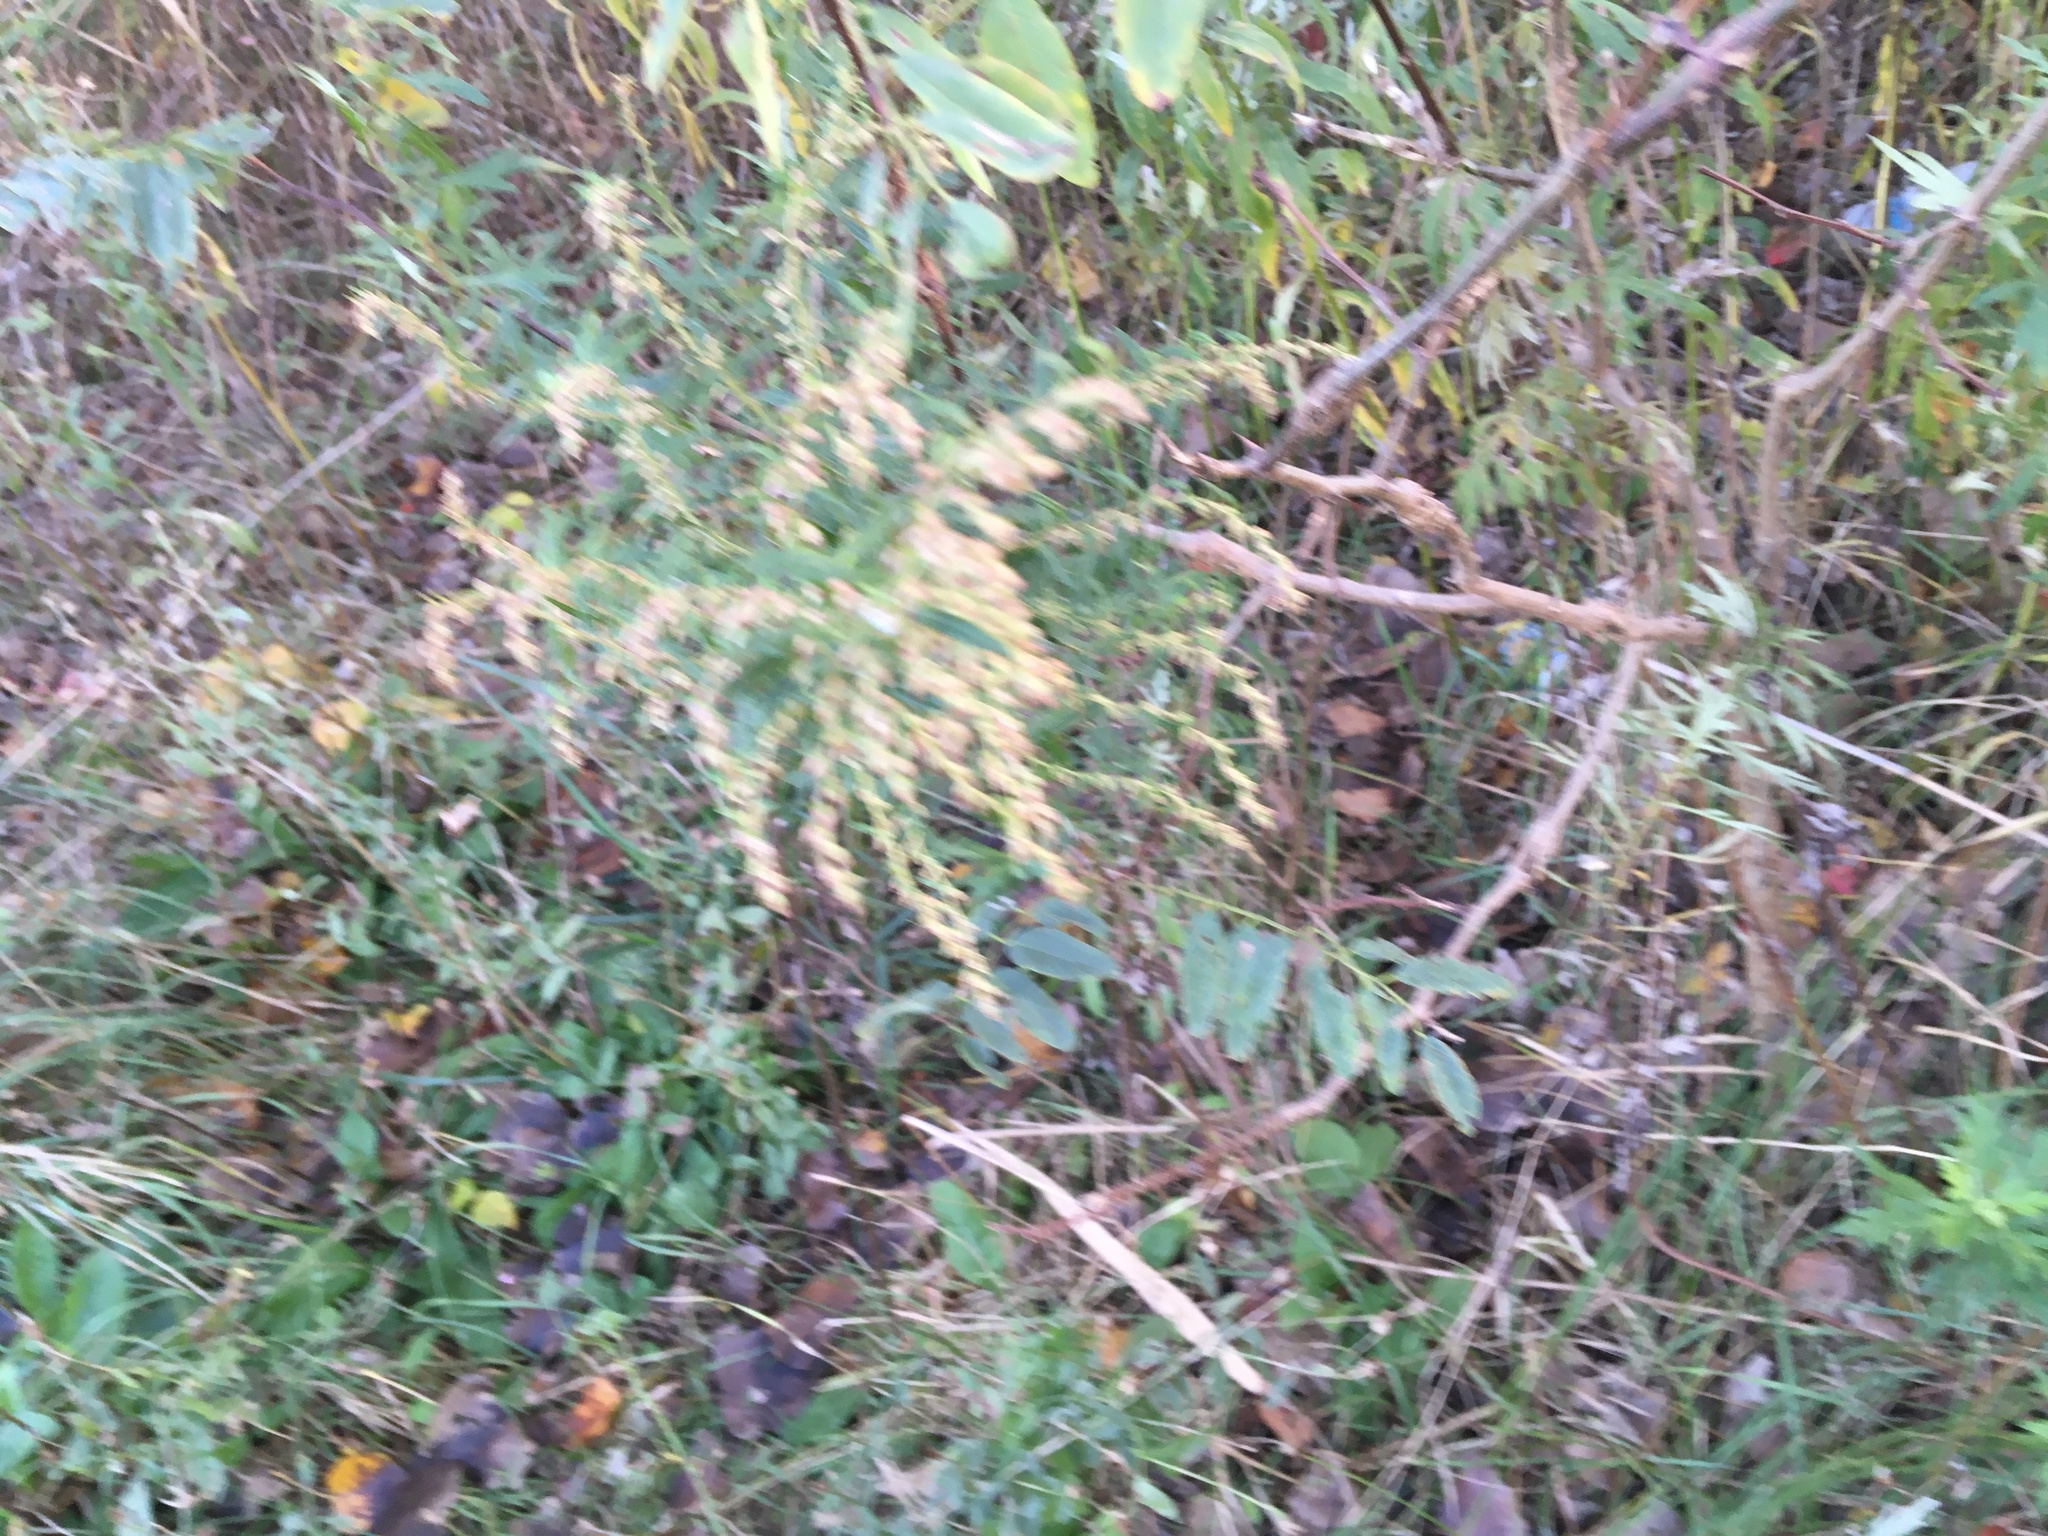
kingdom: Plantae
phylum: Tracheophyta
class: Magnoliopsida
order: Asterales
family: Asteraceae
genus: Artemisia
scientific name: Artemisia vulgaris
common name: Mugwort
